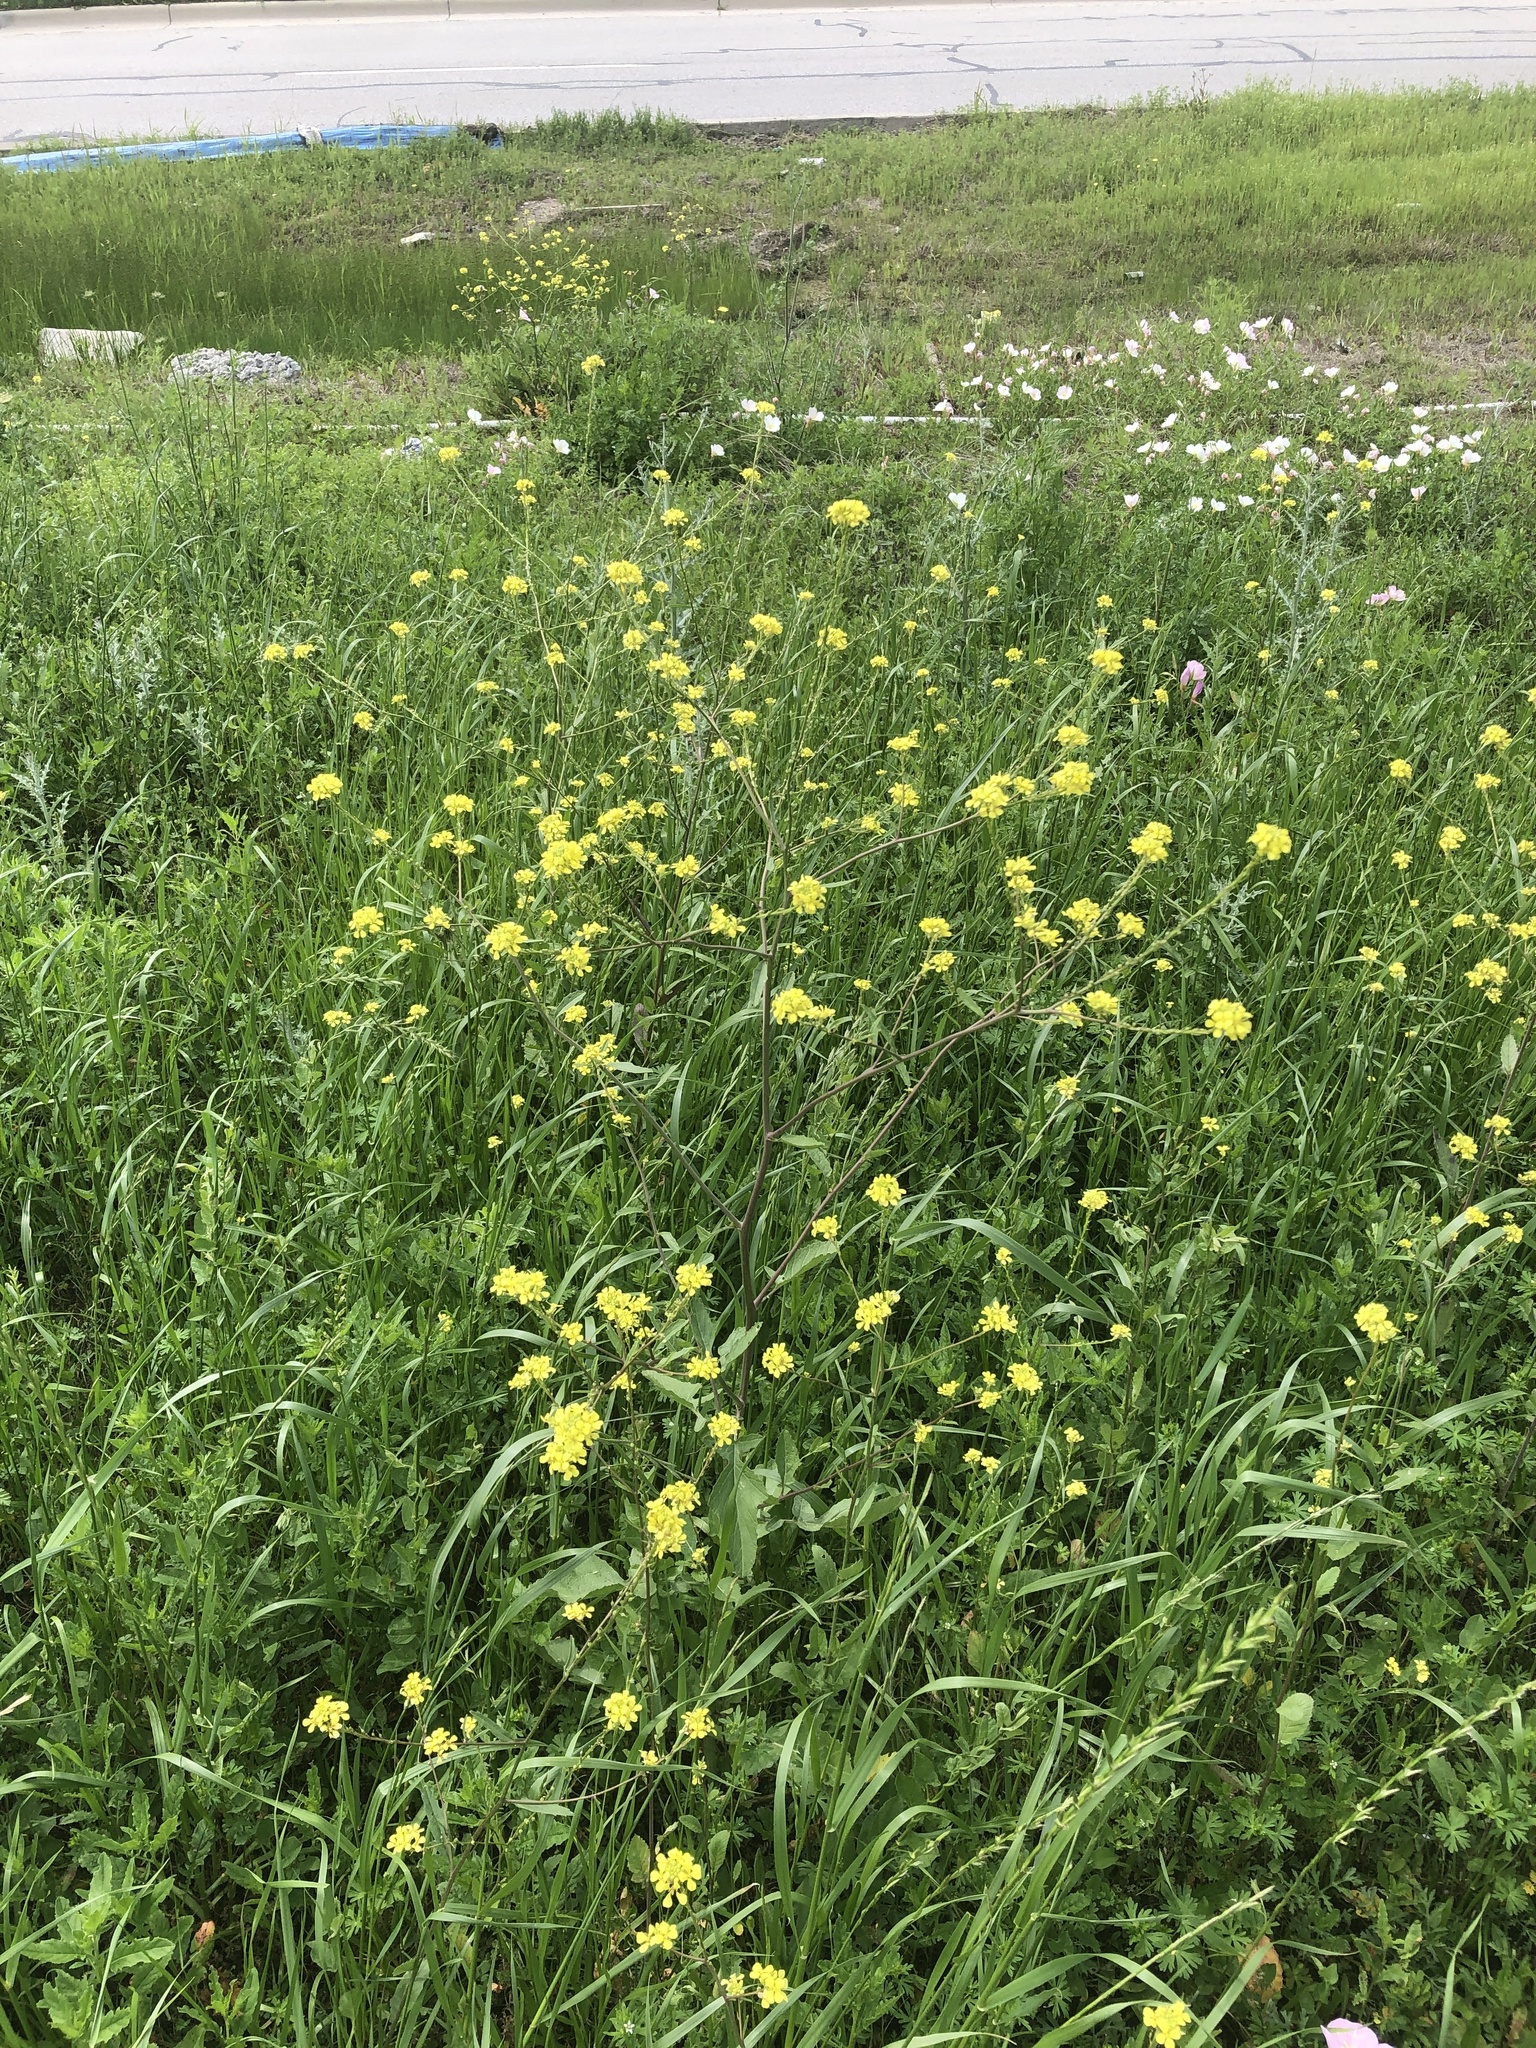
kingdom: Plantae
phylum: Tracheophyta
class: Magnoliopsida
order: Brassicales
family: Brassicaceae
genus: Rapistrum
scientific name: Rapistrum rugosum
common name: Annual bastardcabbage
